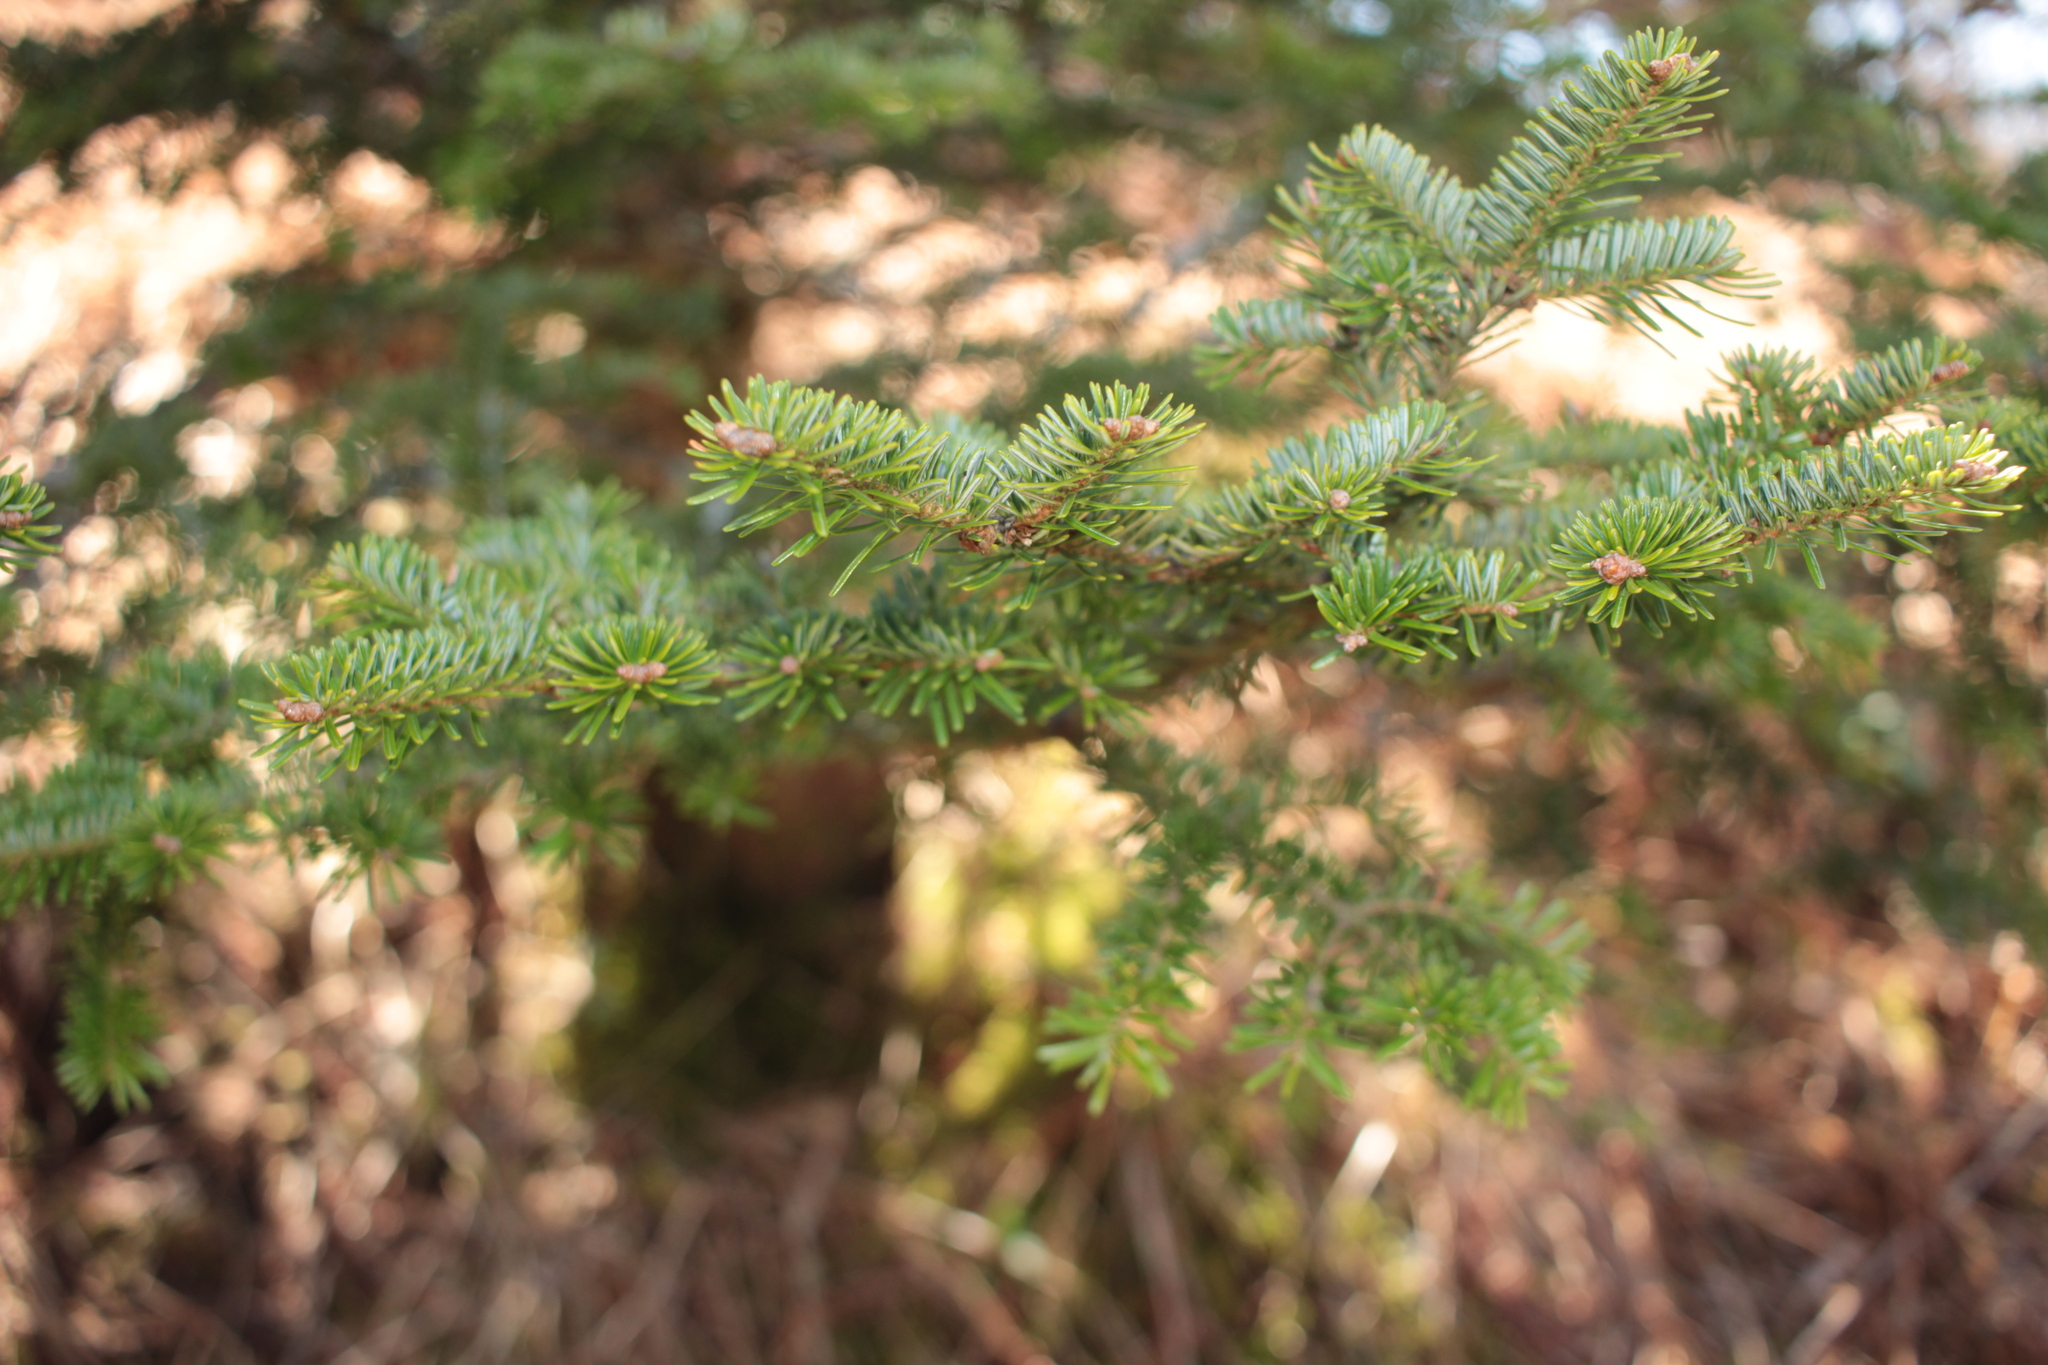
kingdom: Plantae
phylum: Tracheophyta
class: Pinopsida
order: Pinales
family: Pinaceae
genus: Abies
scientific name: Abies fraseri
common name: Fraser fir
